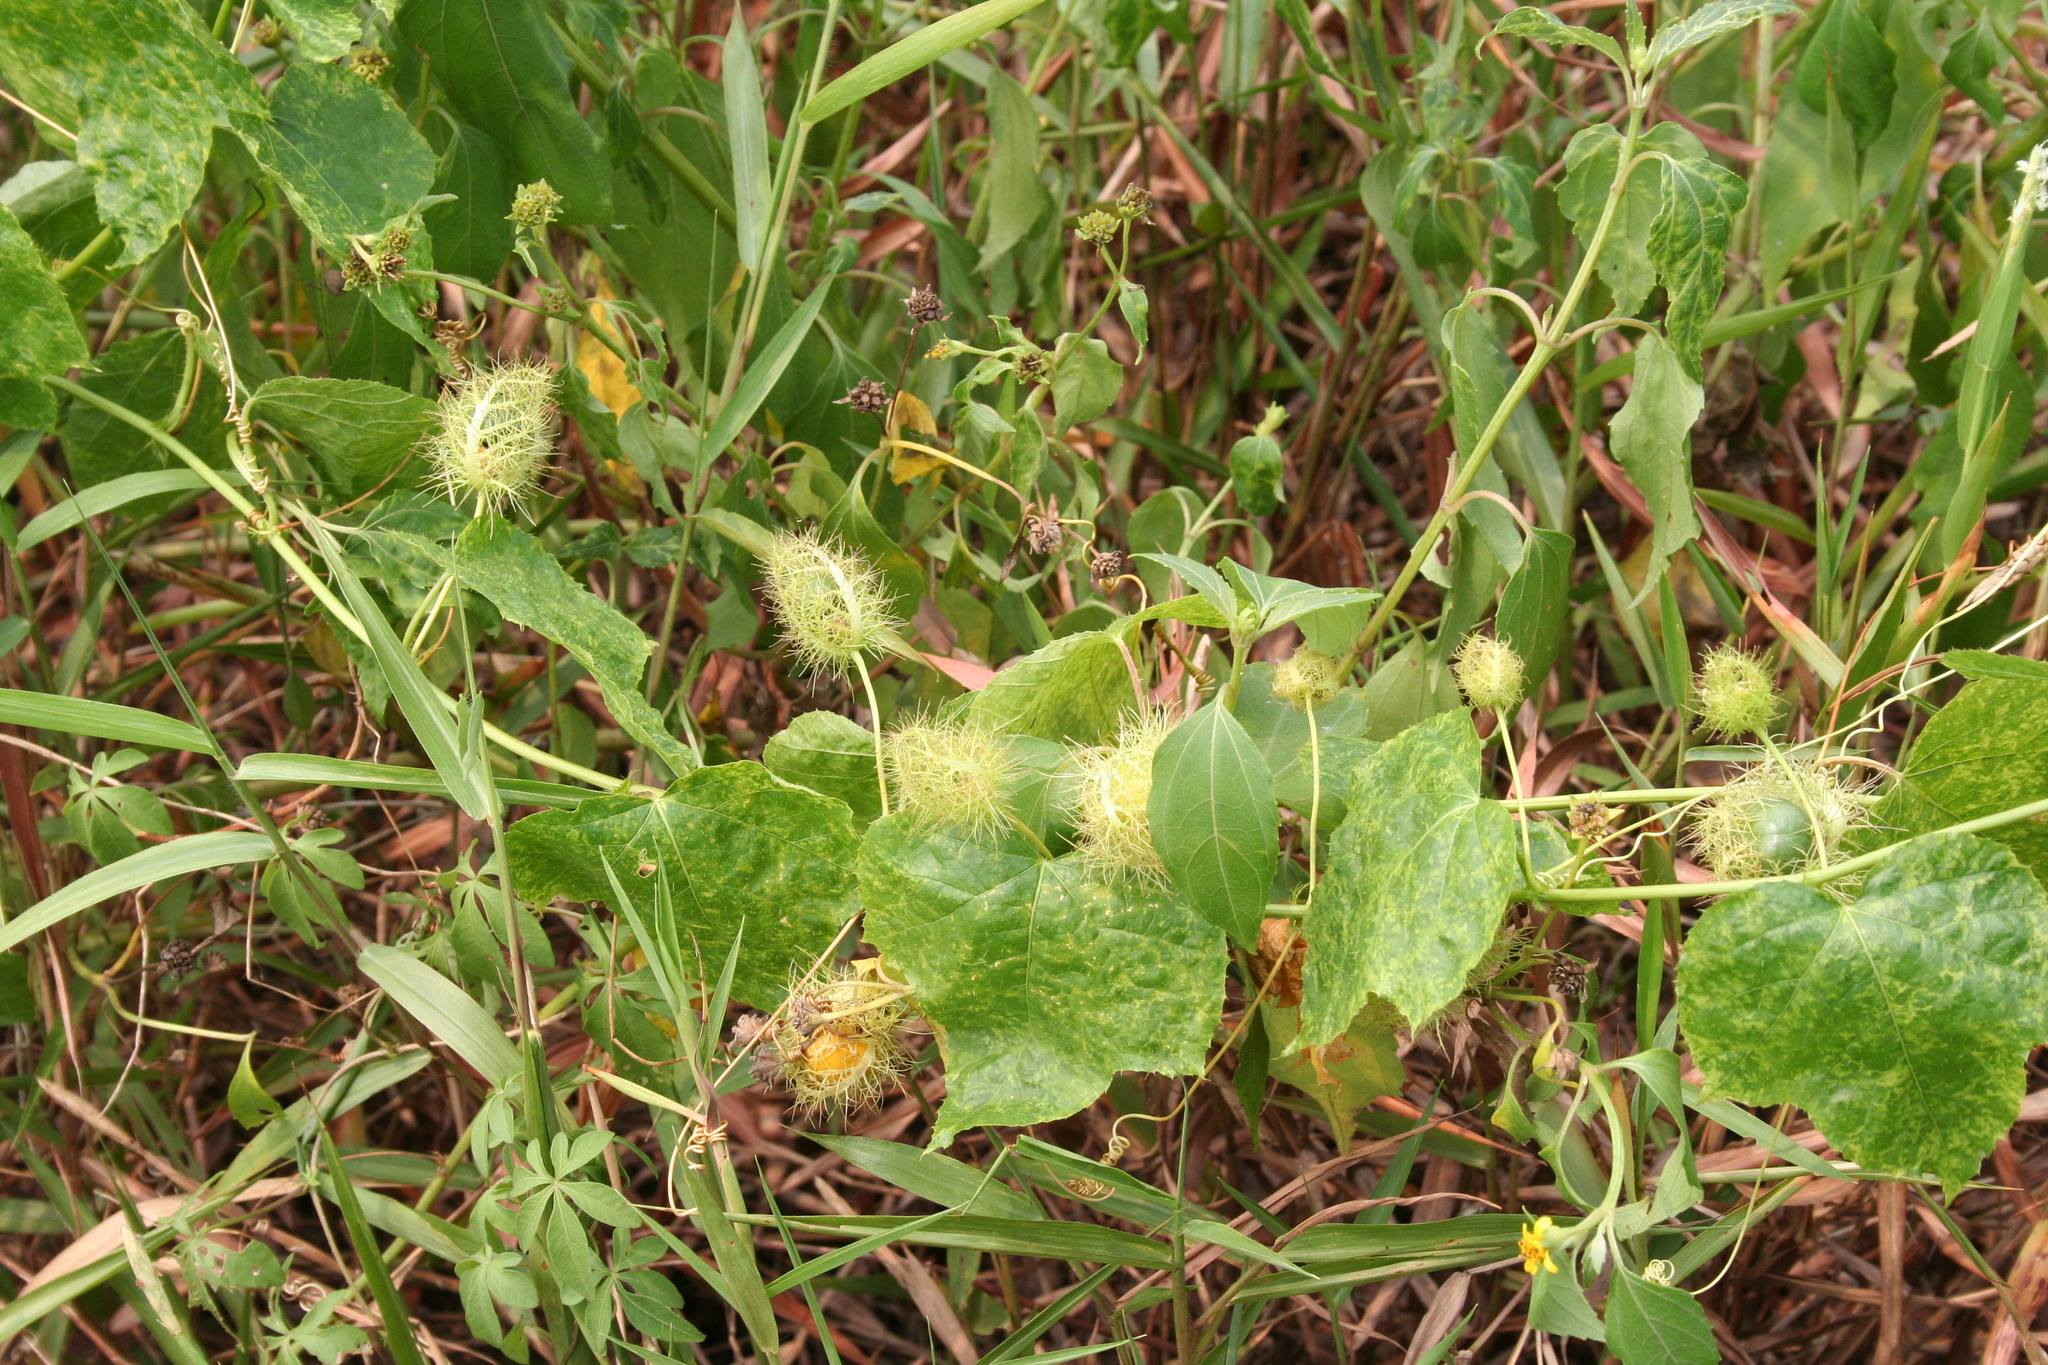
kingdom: Plantae
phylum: Tracheophyta
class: Magnoliopsida
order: Malpighiales
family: Passifloraceae
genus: Passiflora
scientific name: Passiflora foetida
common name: Fetid passionflower
